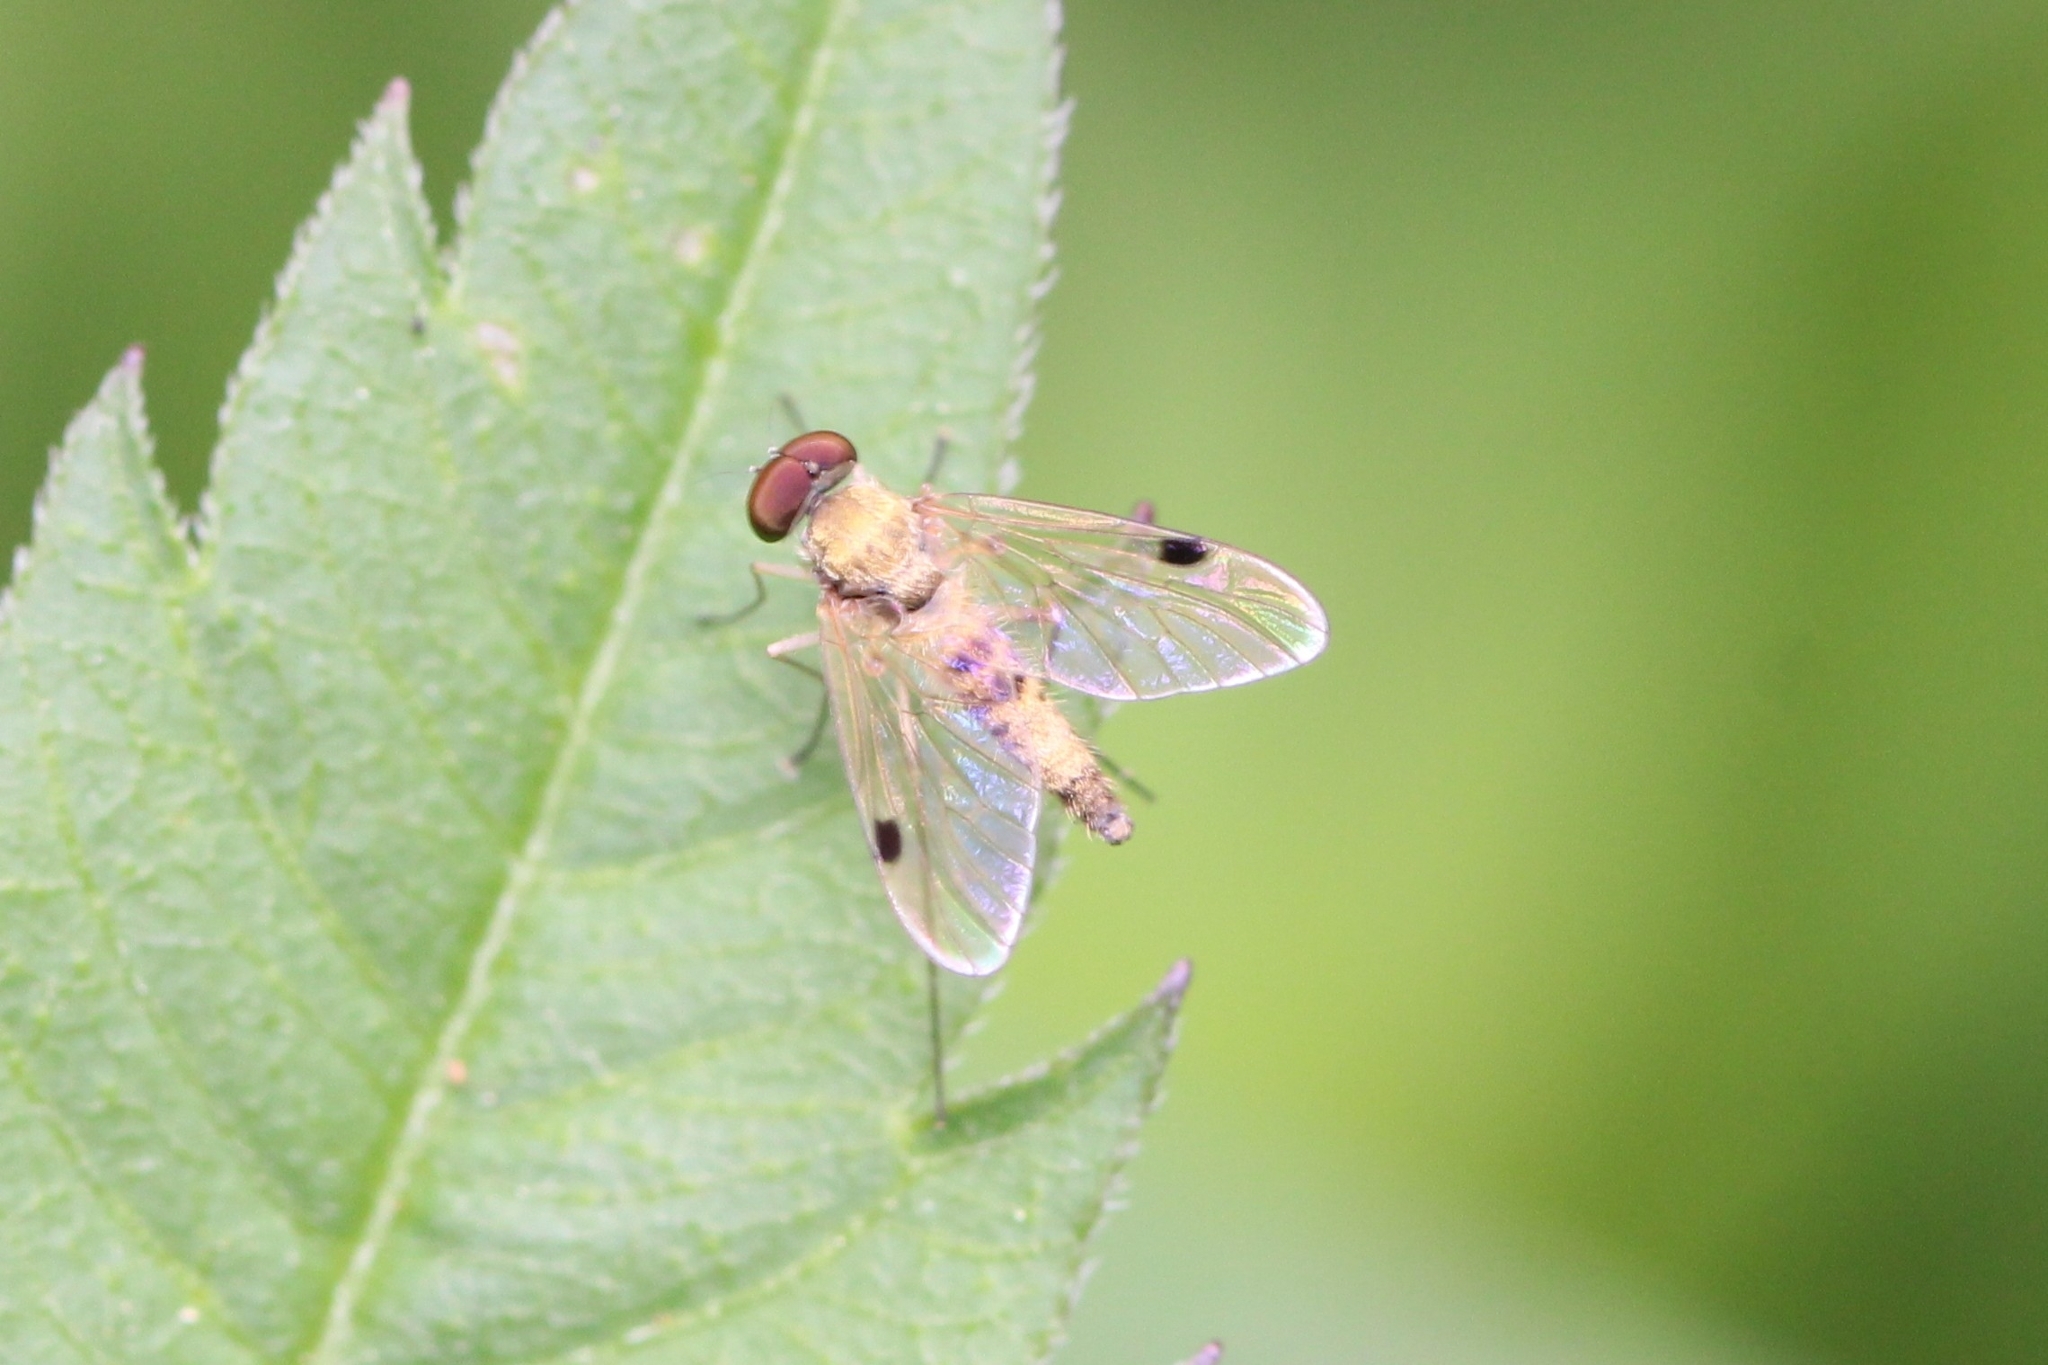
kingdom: Animalia
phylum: Arthropoda
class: Insecta
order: Diptera
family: Rhagionidae
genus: Chrysopilus
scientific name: Chrysopilus modestus
